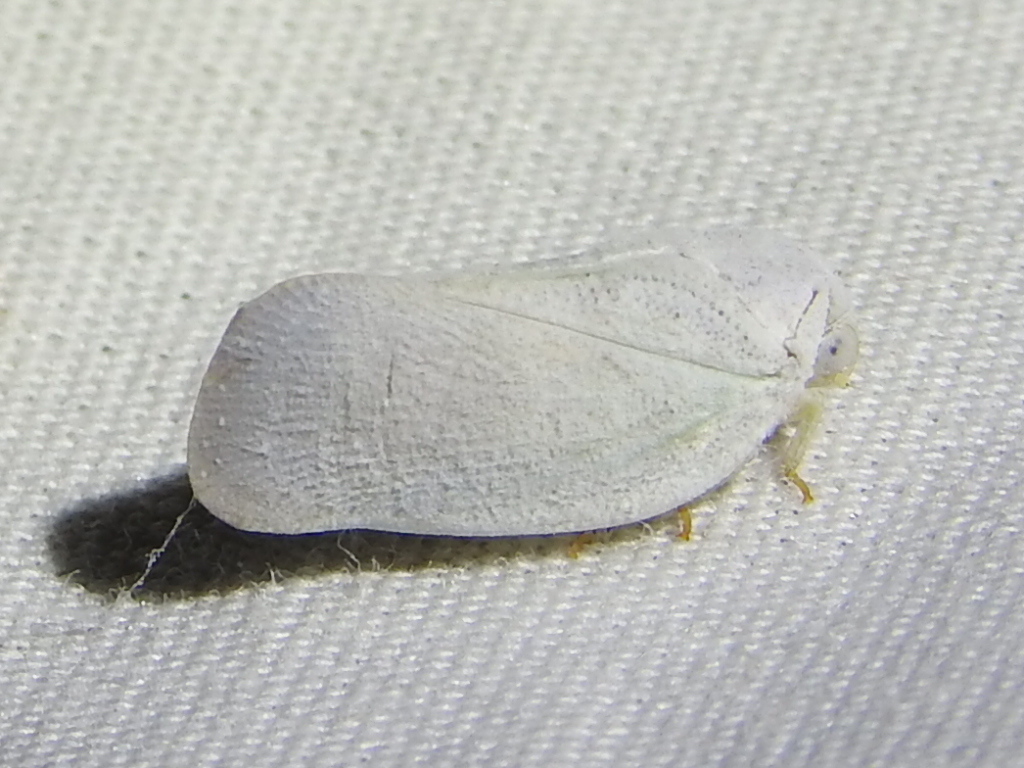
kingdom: Animalia
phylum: Arthropoda
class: Insecta
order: Hemiptera
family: Flatidae
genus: Flatormenis
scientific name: Flatormenis saucia
